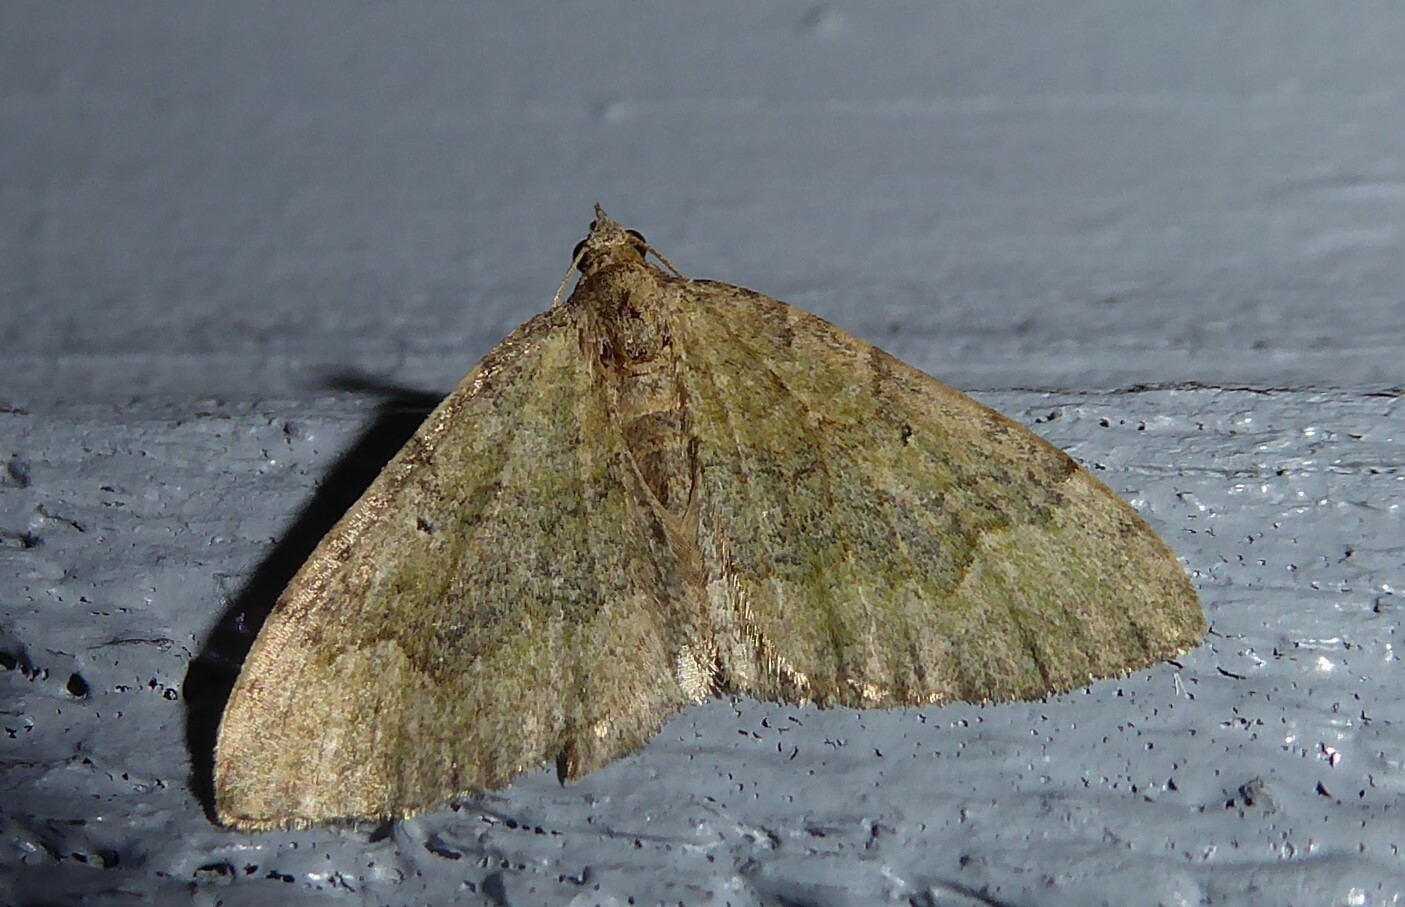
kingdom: Animalia
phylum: Arthropoda
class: Insecta
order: Lepidoptera
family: Geometridae
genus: Epyaxa
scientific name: Epyaxa rosearia
